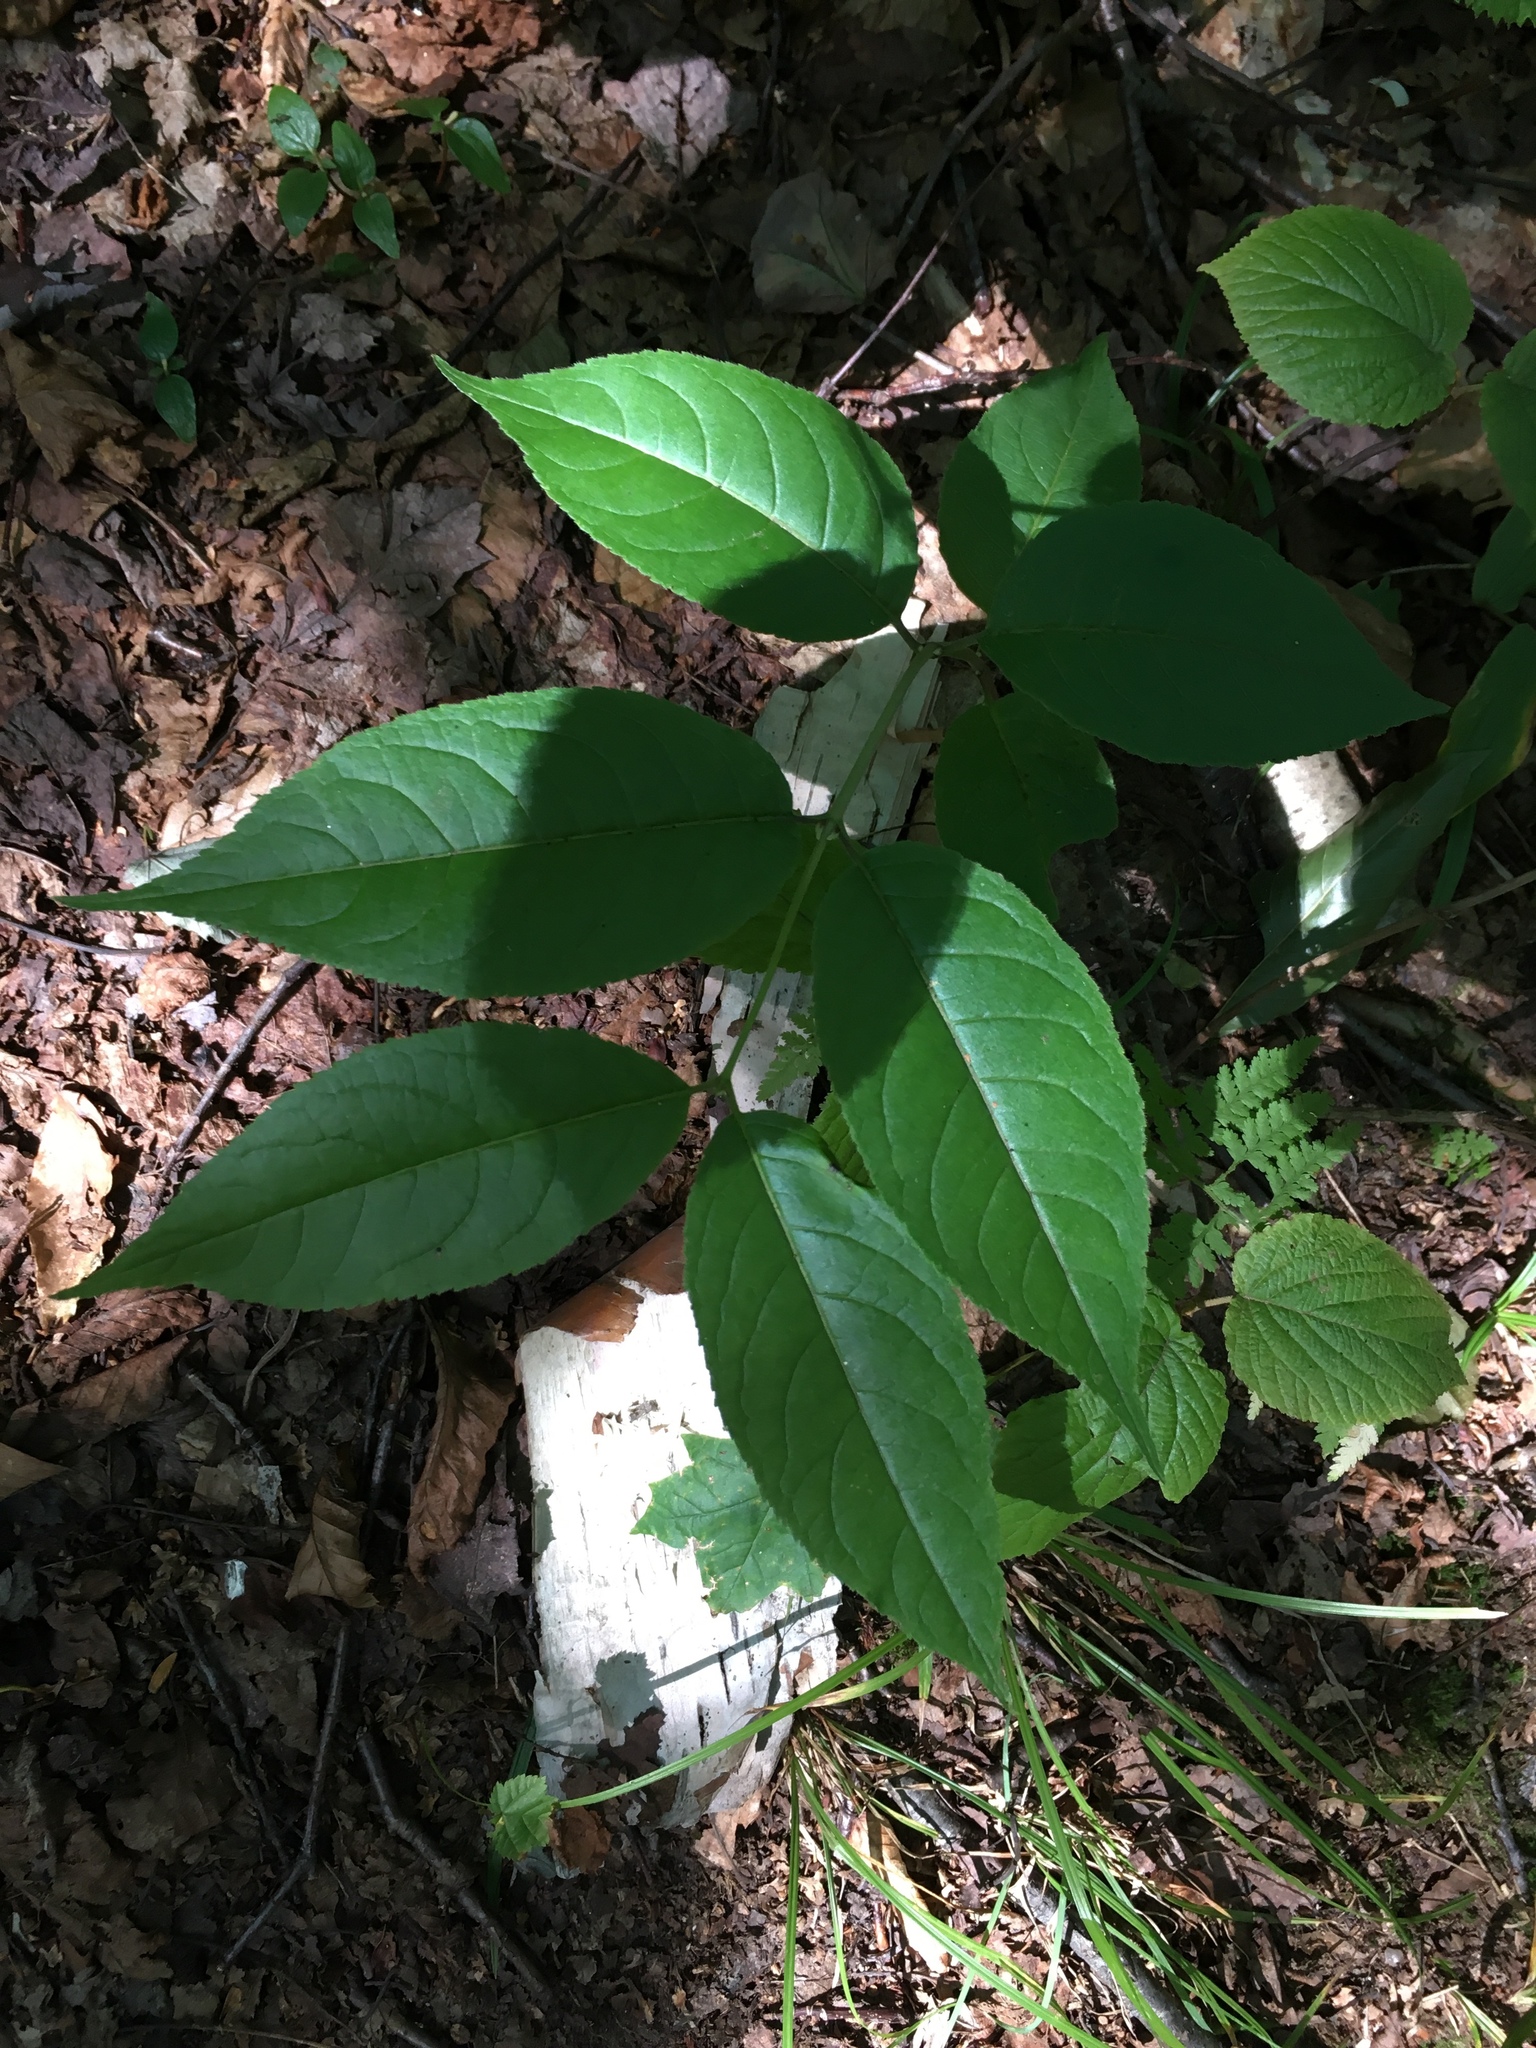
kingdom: Plantae
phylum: Tracheophyta
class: Magnoliopsida
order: Dipsacales
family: Caprifoliaceae
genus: Diervilla
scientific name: Diervilla lonicera
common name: Bush-honeysuckle
